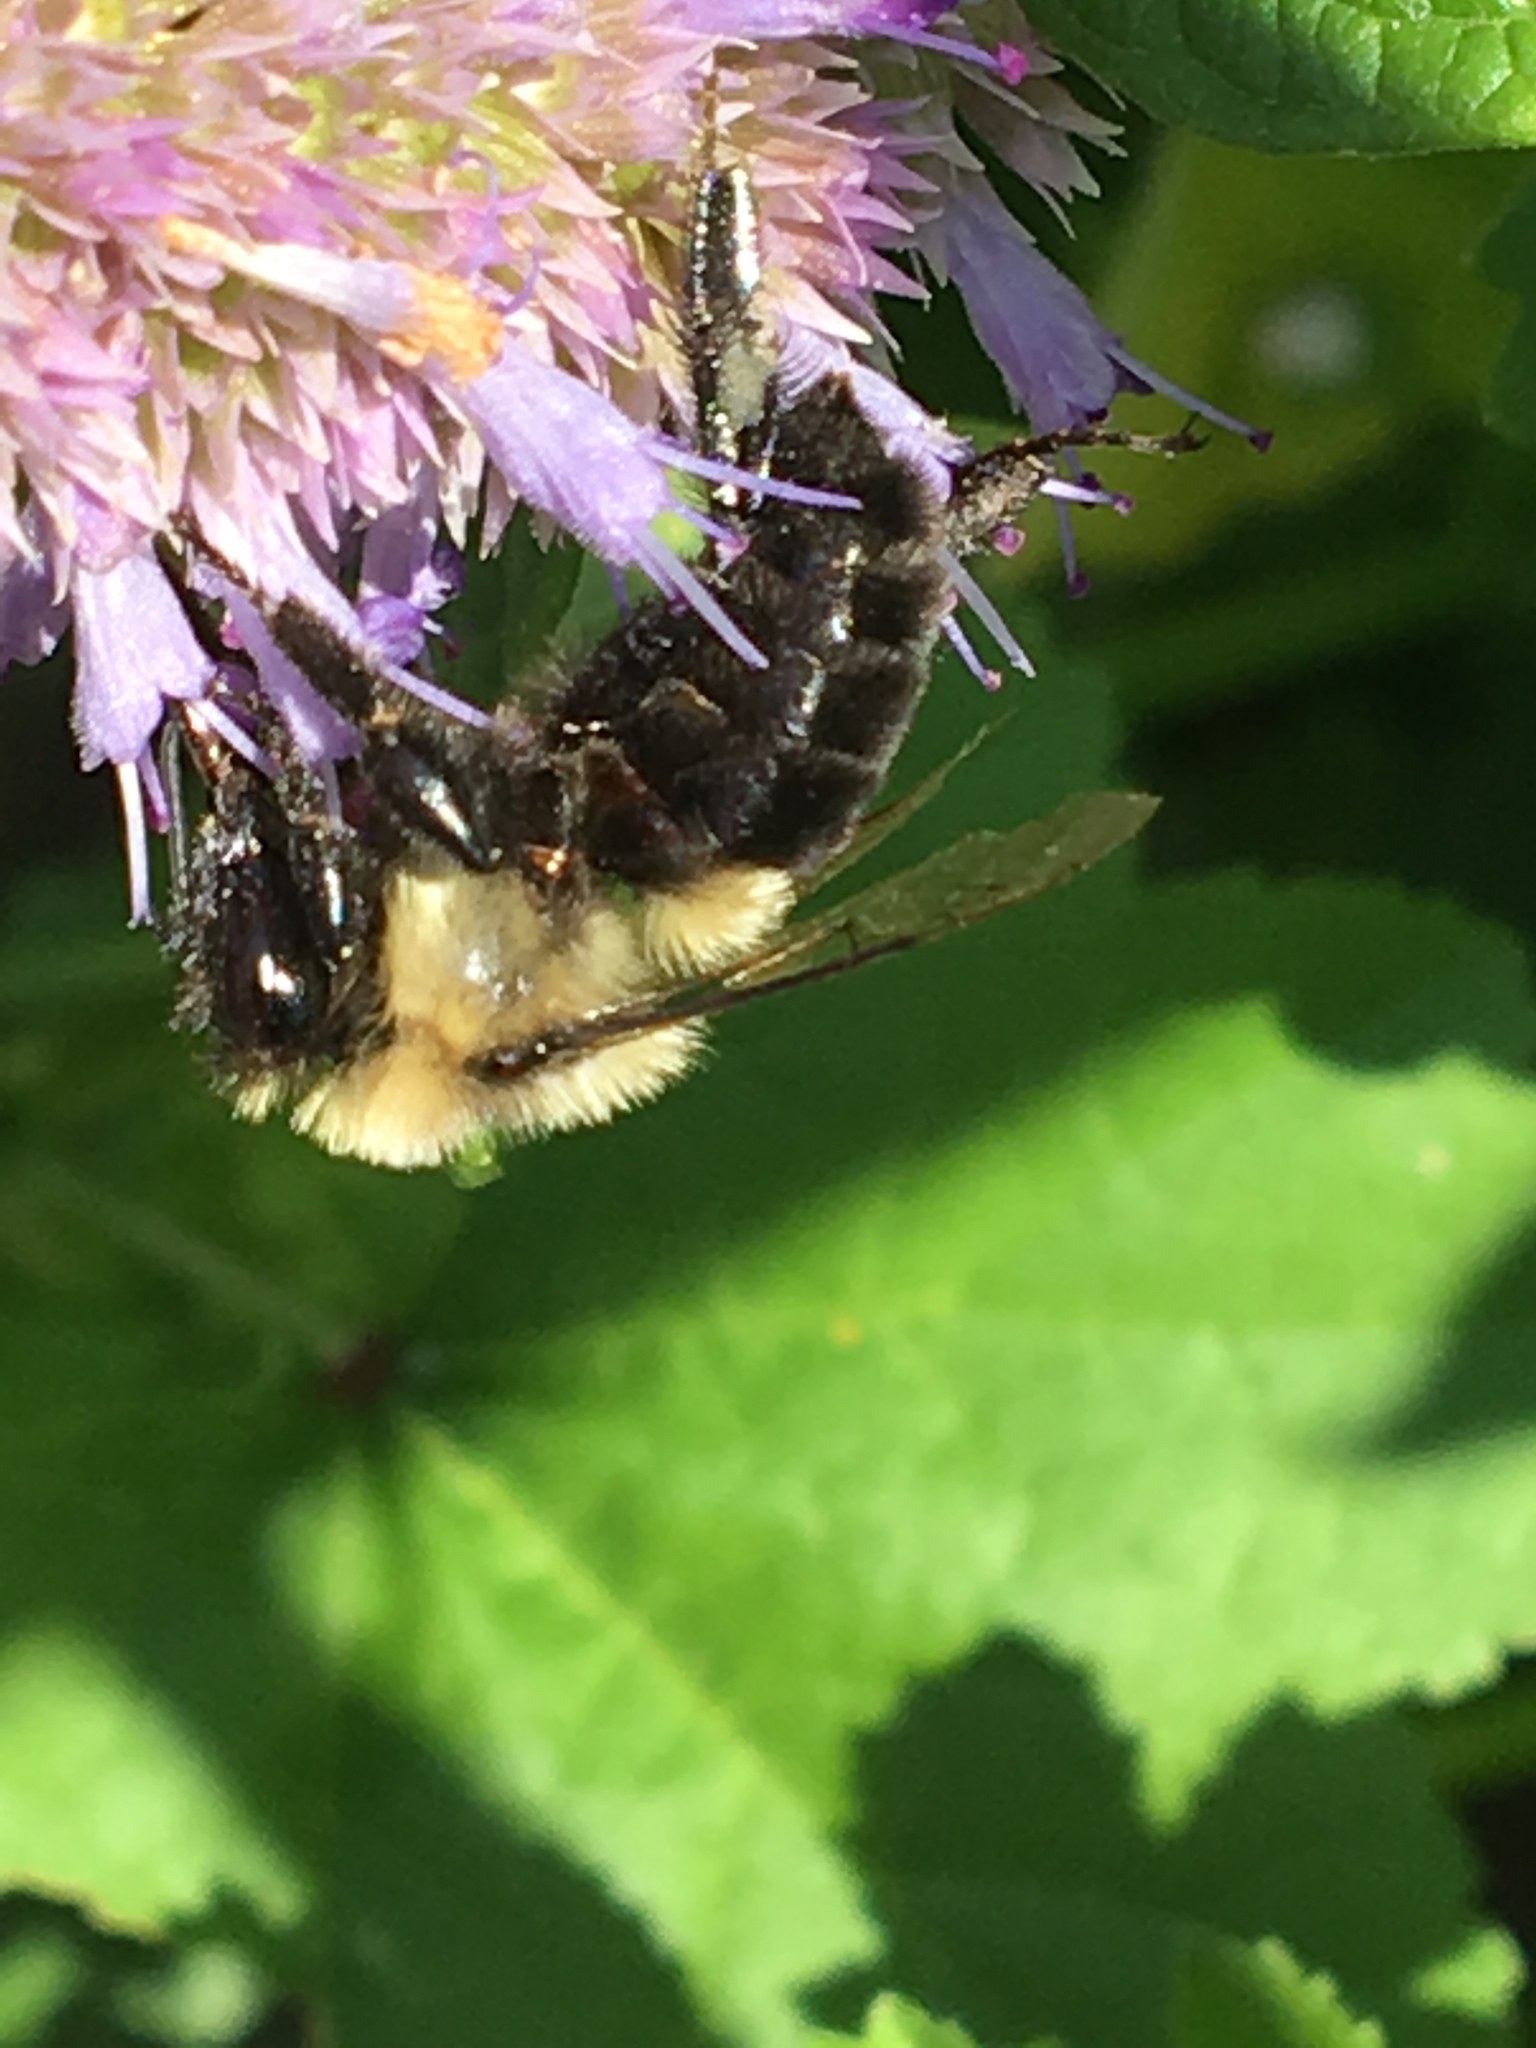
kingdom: Animalia
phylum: Arthropoda
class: Insecta
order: Hymenoptera
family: Apidae
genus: Bombus
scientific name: Bombus impatiens
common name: Common eastern bumble bee
